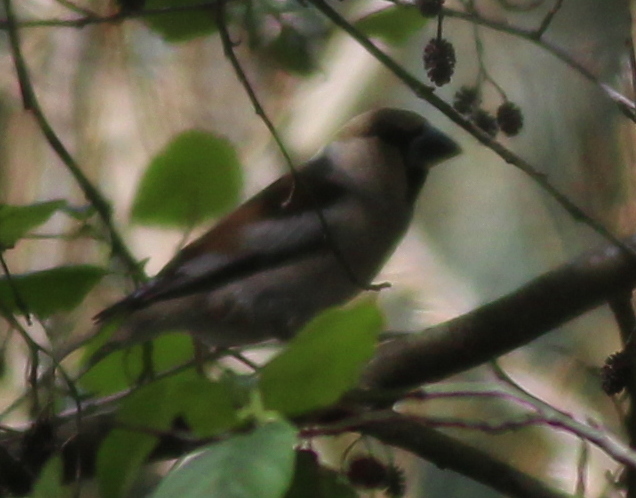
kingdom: Animalia
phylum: Chordata
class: Aves
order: Passeriformes
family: Fringillidae
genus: Coccothraustes
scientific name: Coccothraustes coccothraustes
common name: Hawfinch
